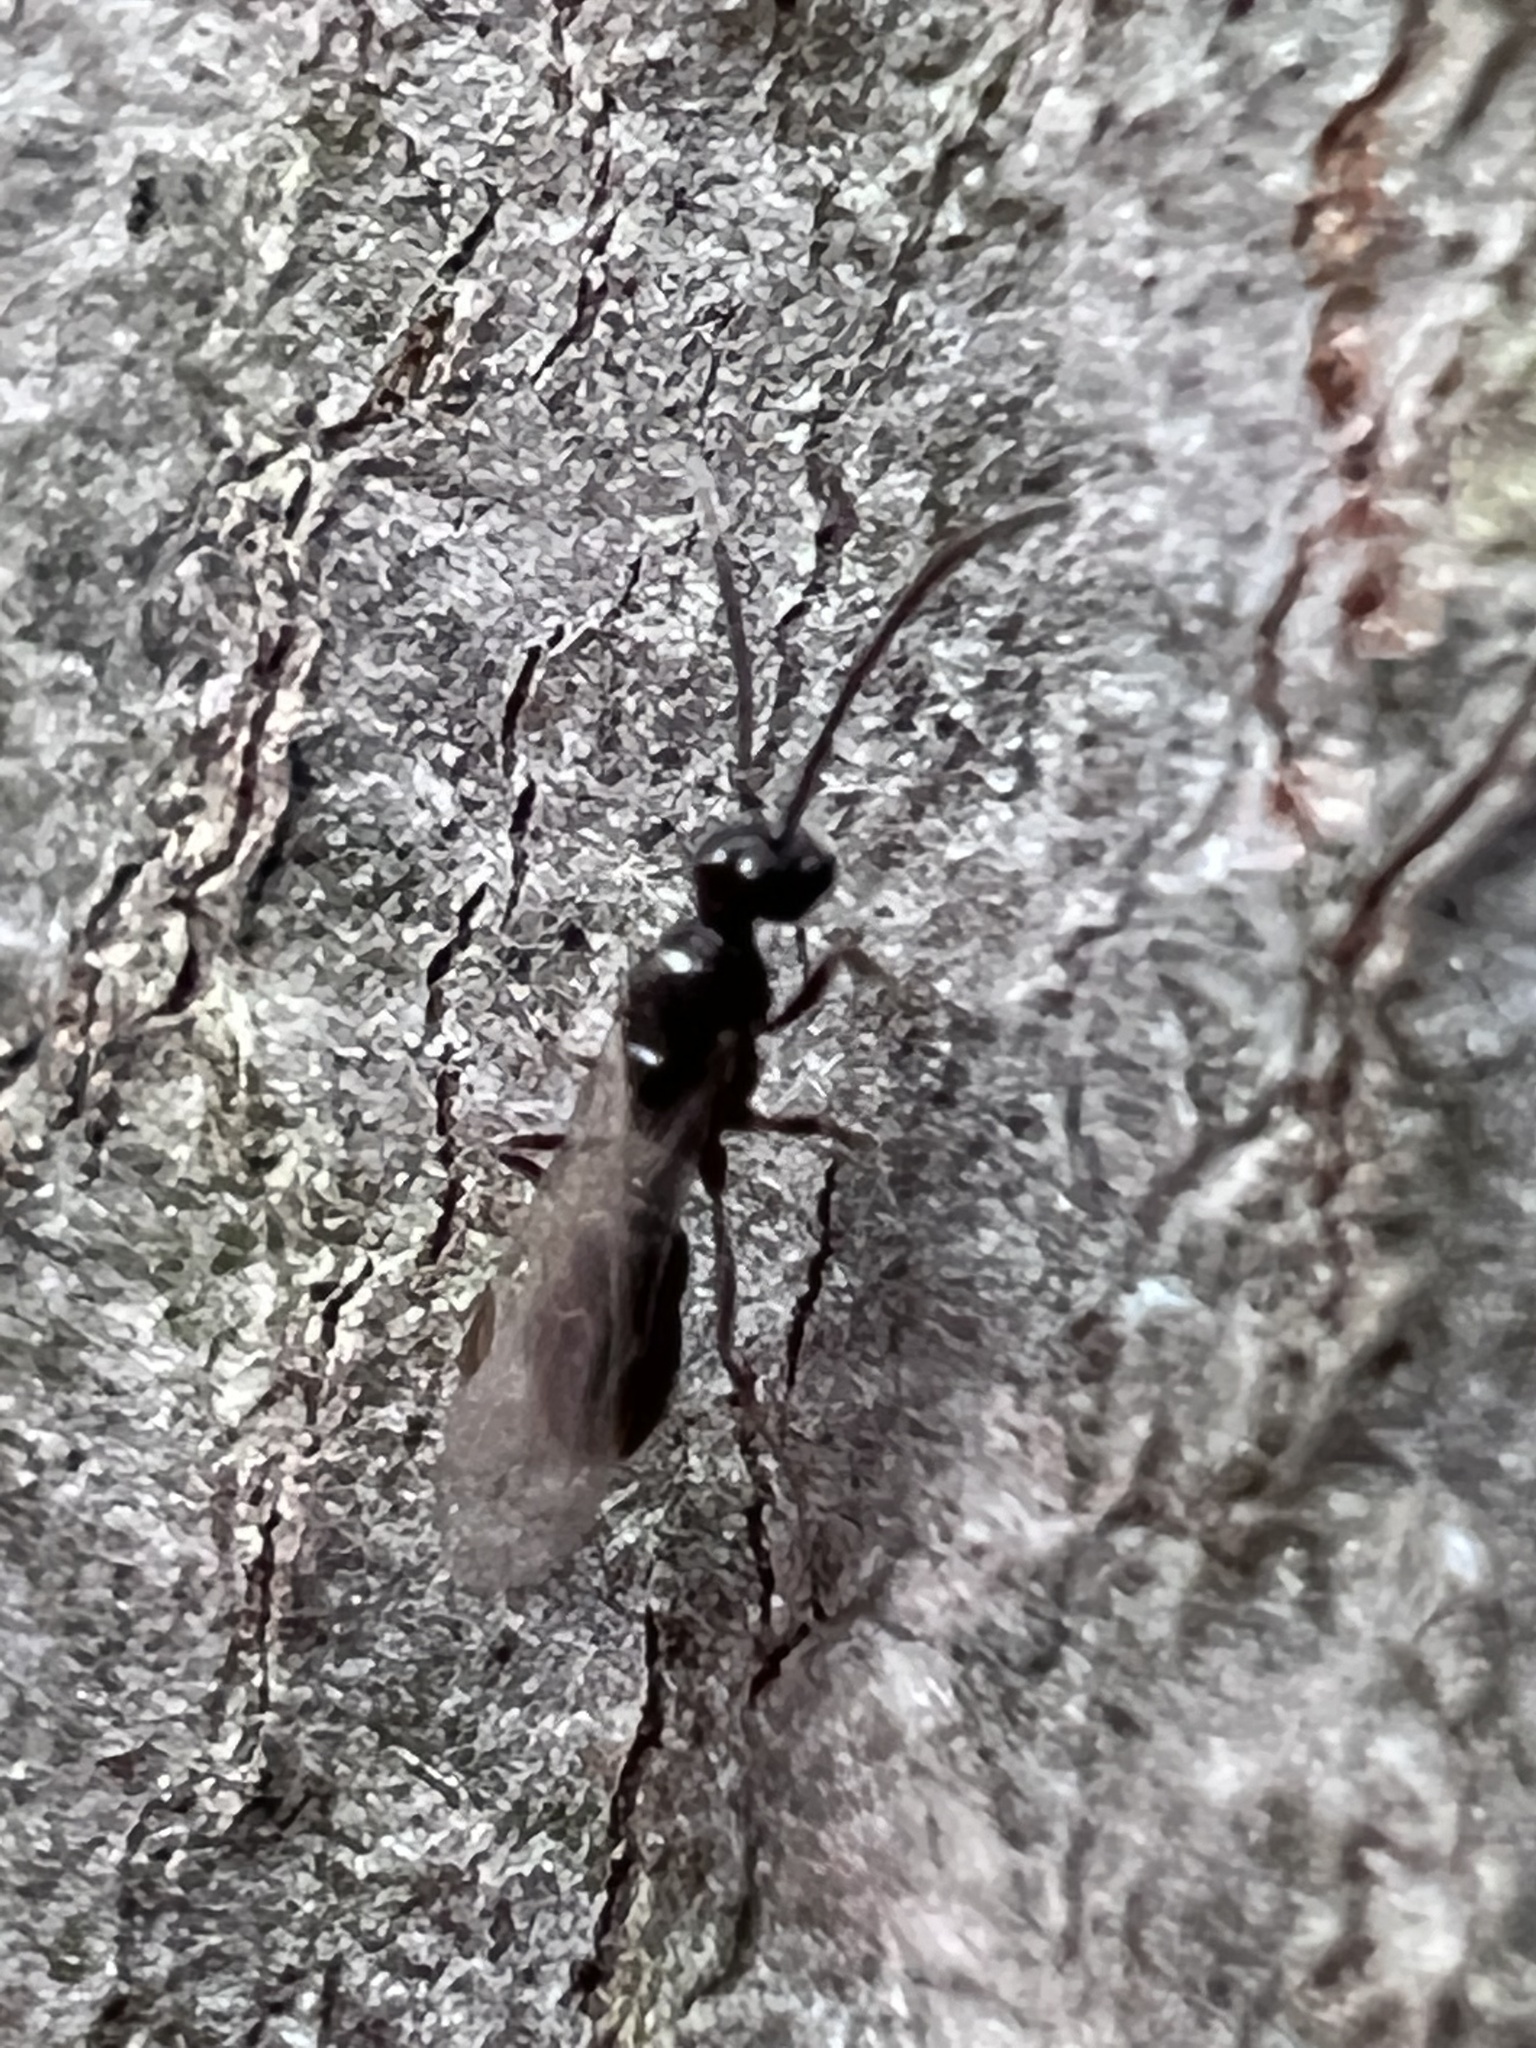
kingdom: Animalia
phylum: Arthropoda
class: Insecta
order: Hymenoptera
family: Formicidae
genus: Ponera
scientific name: Ponera pennsylvanica
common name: Pennsylvania ponera
